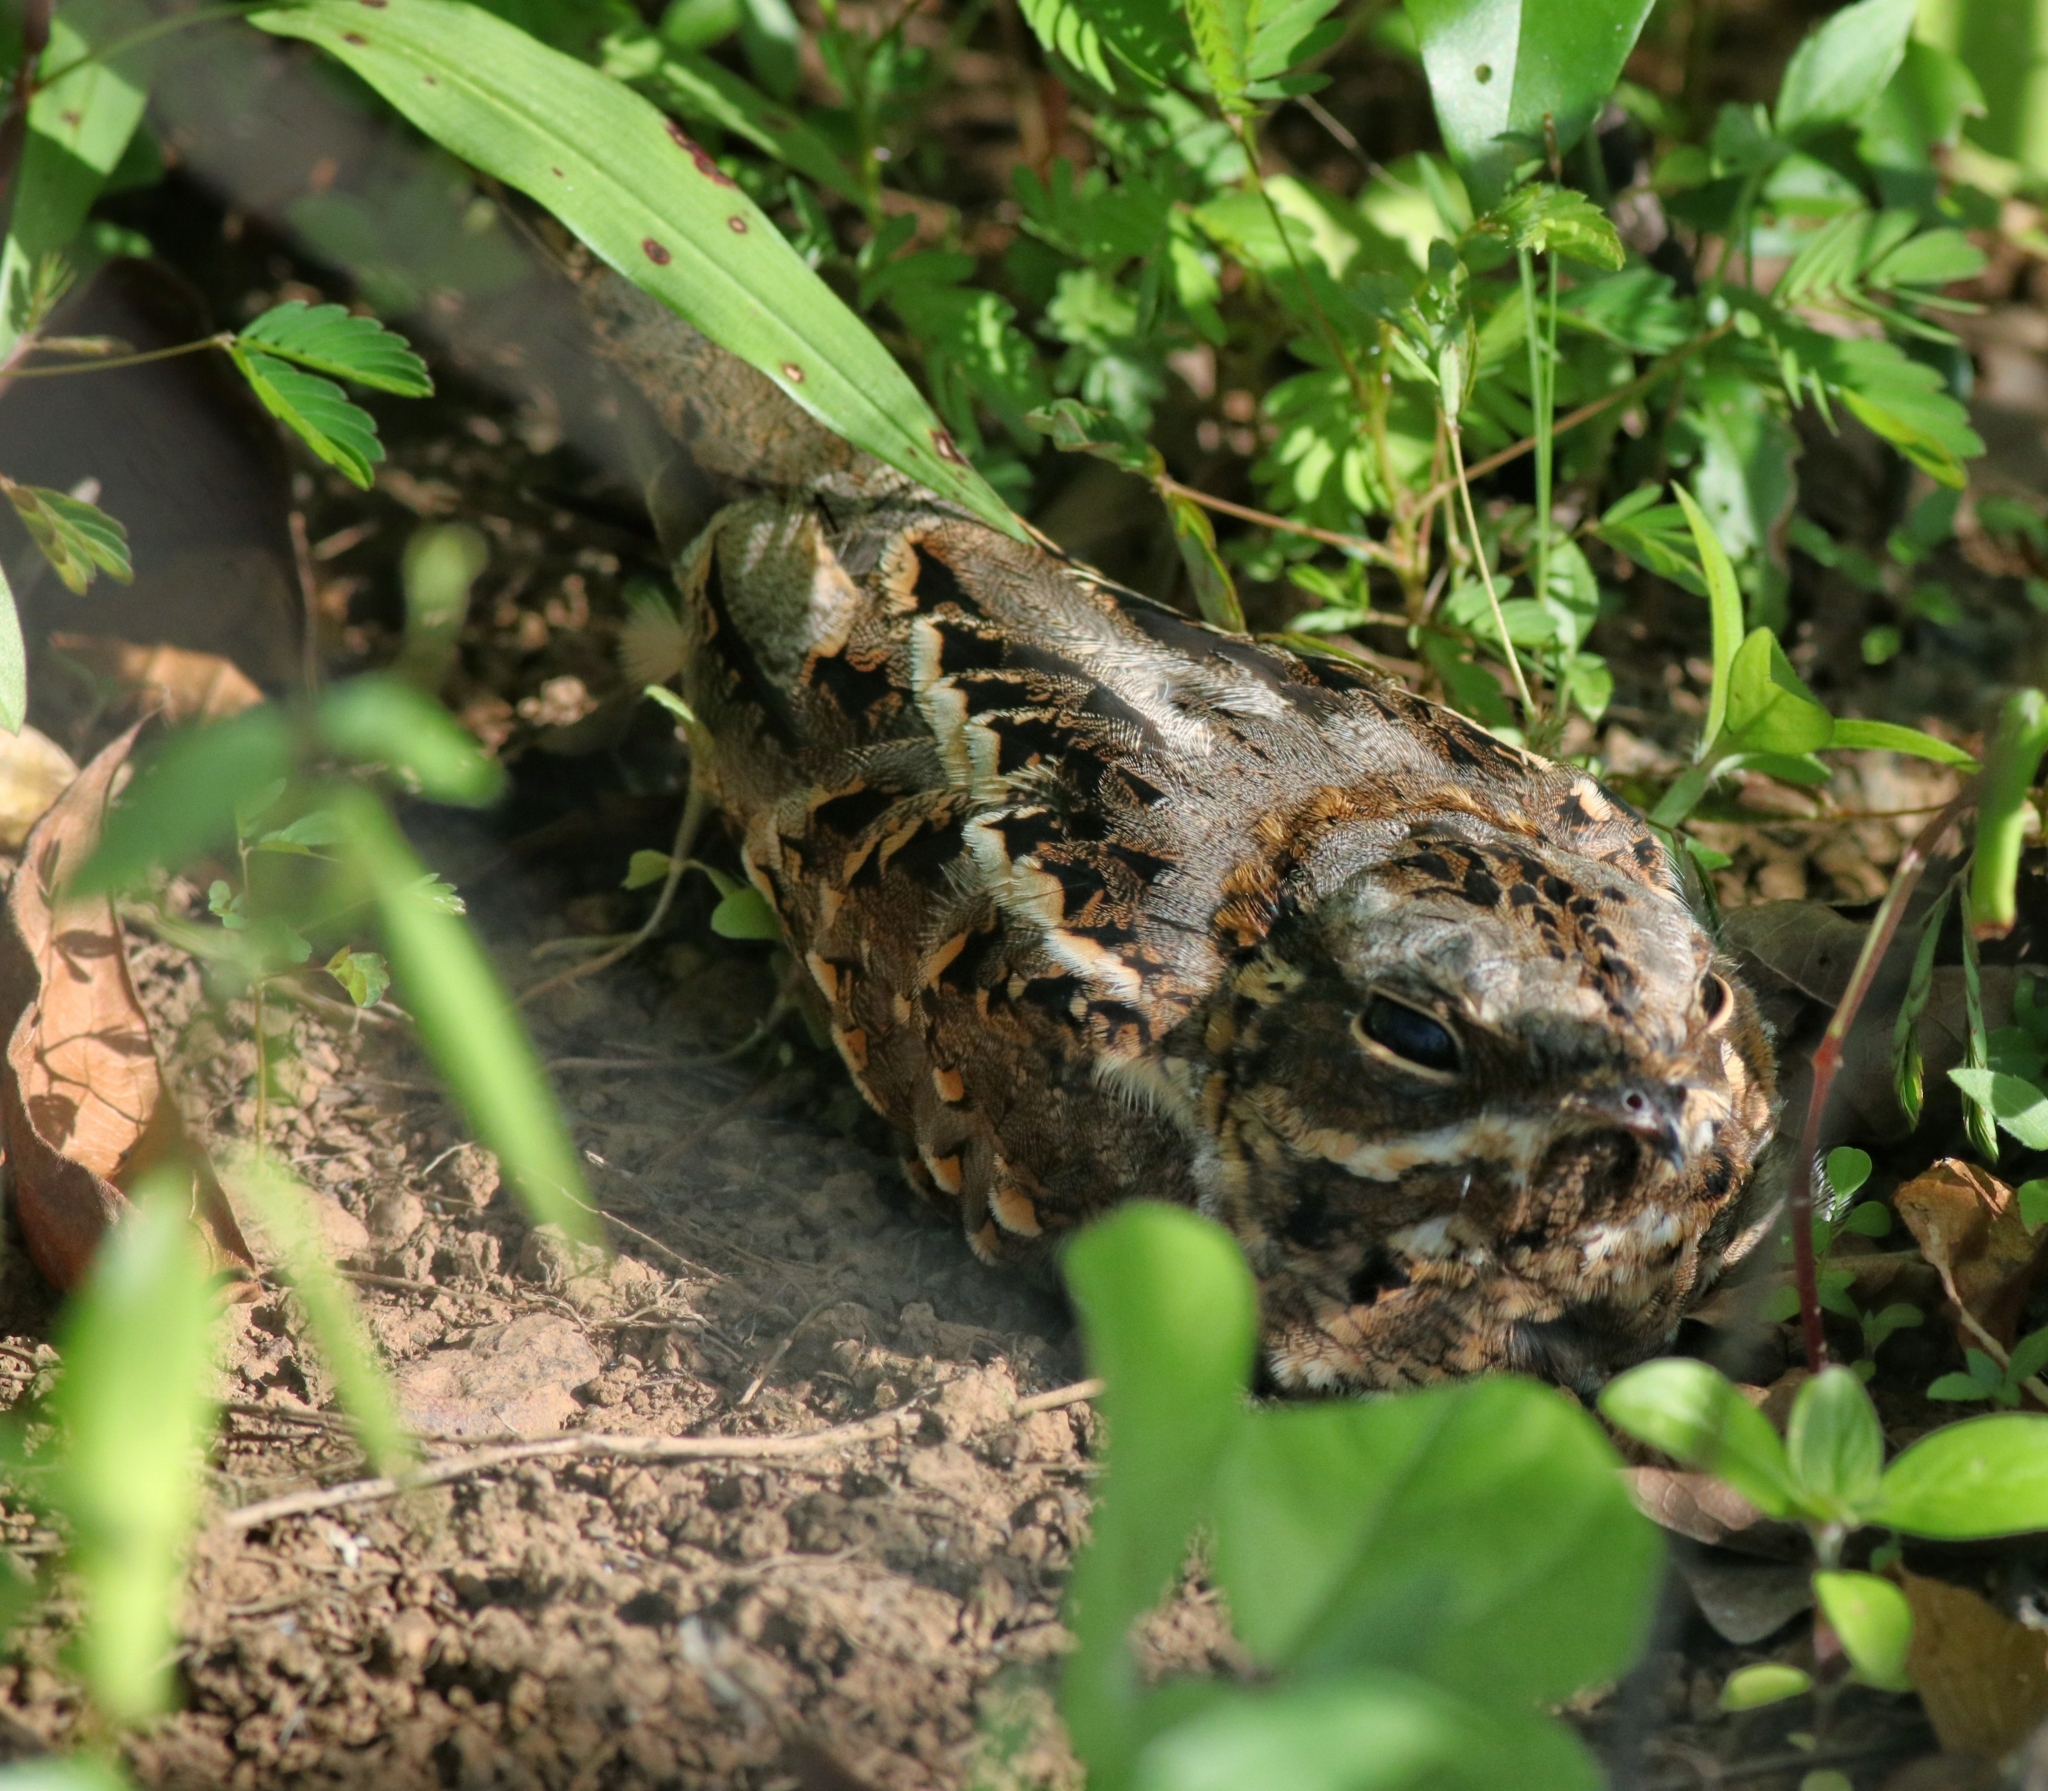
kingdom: Animalia
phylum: Chordata
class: Aves
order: Caprimulgiformes
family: Caprimulgidae
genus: Caprimulgus
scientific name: Caprimulgus asiaticus
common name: Indian nightjar
